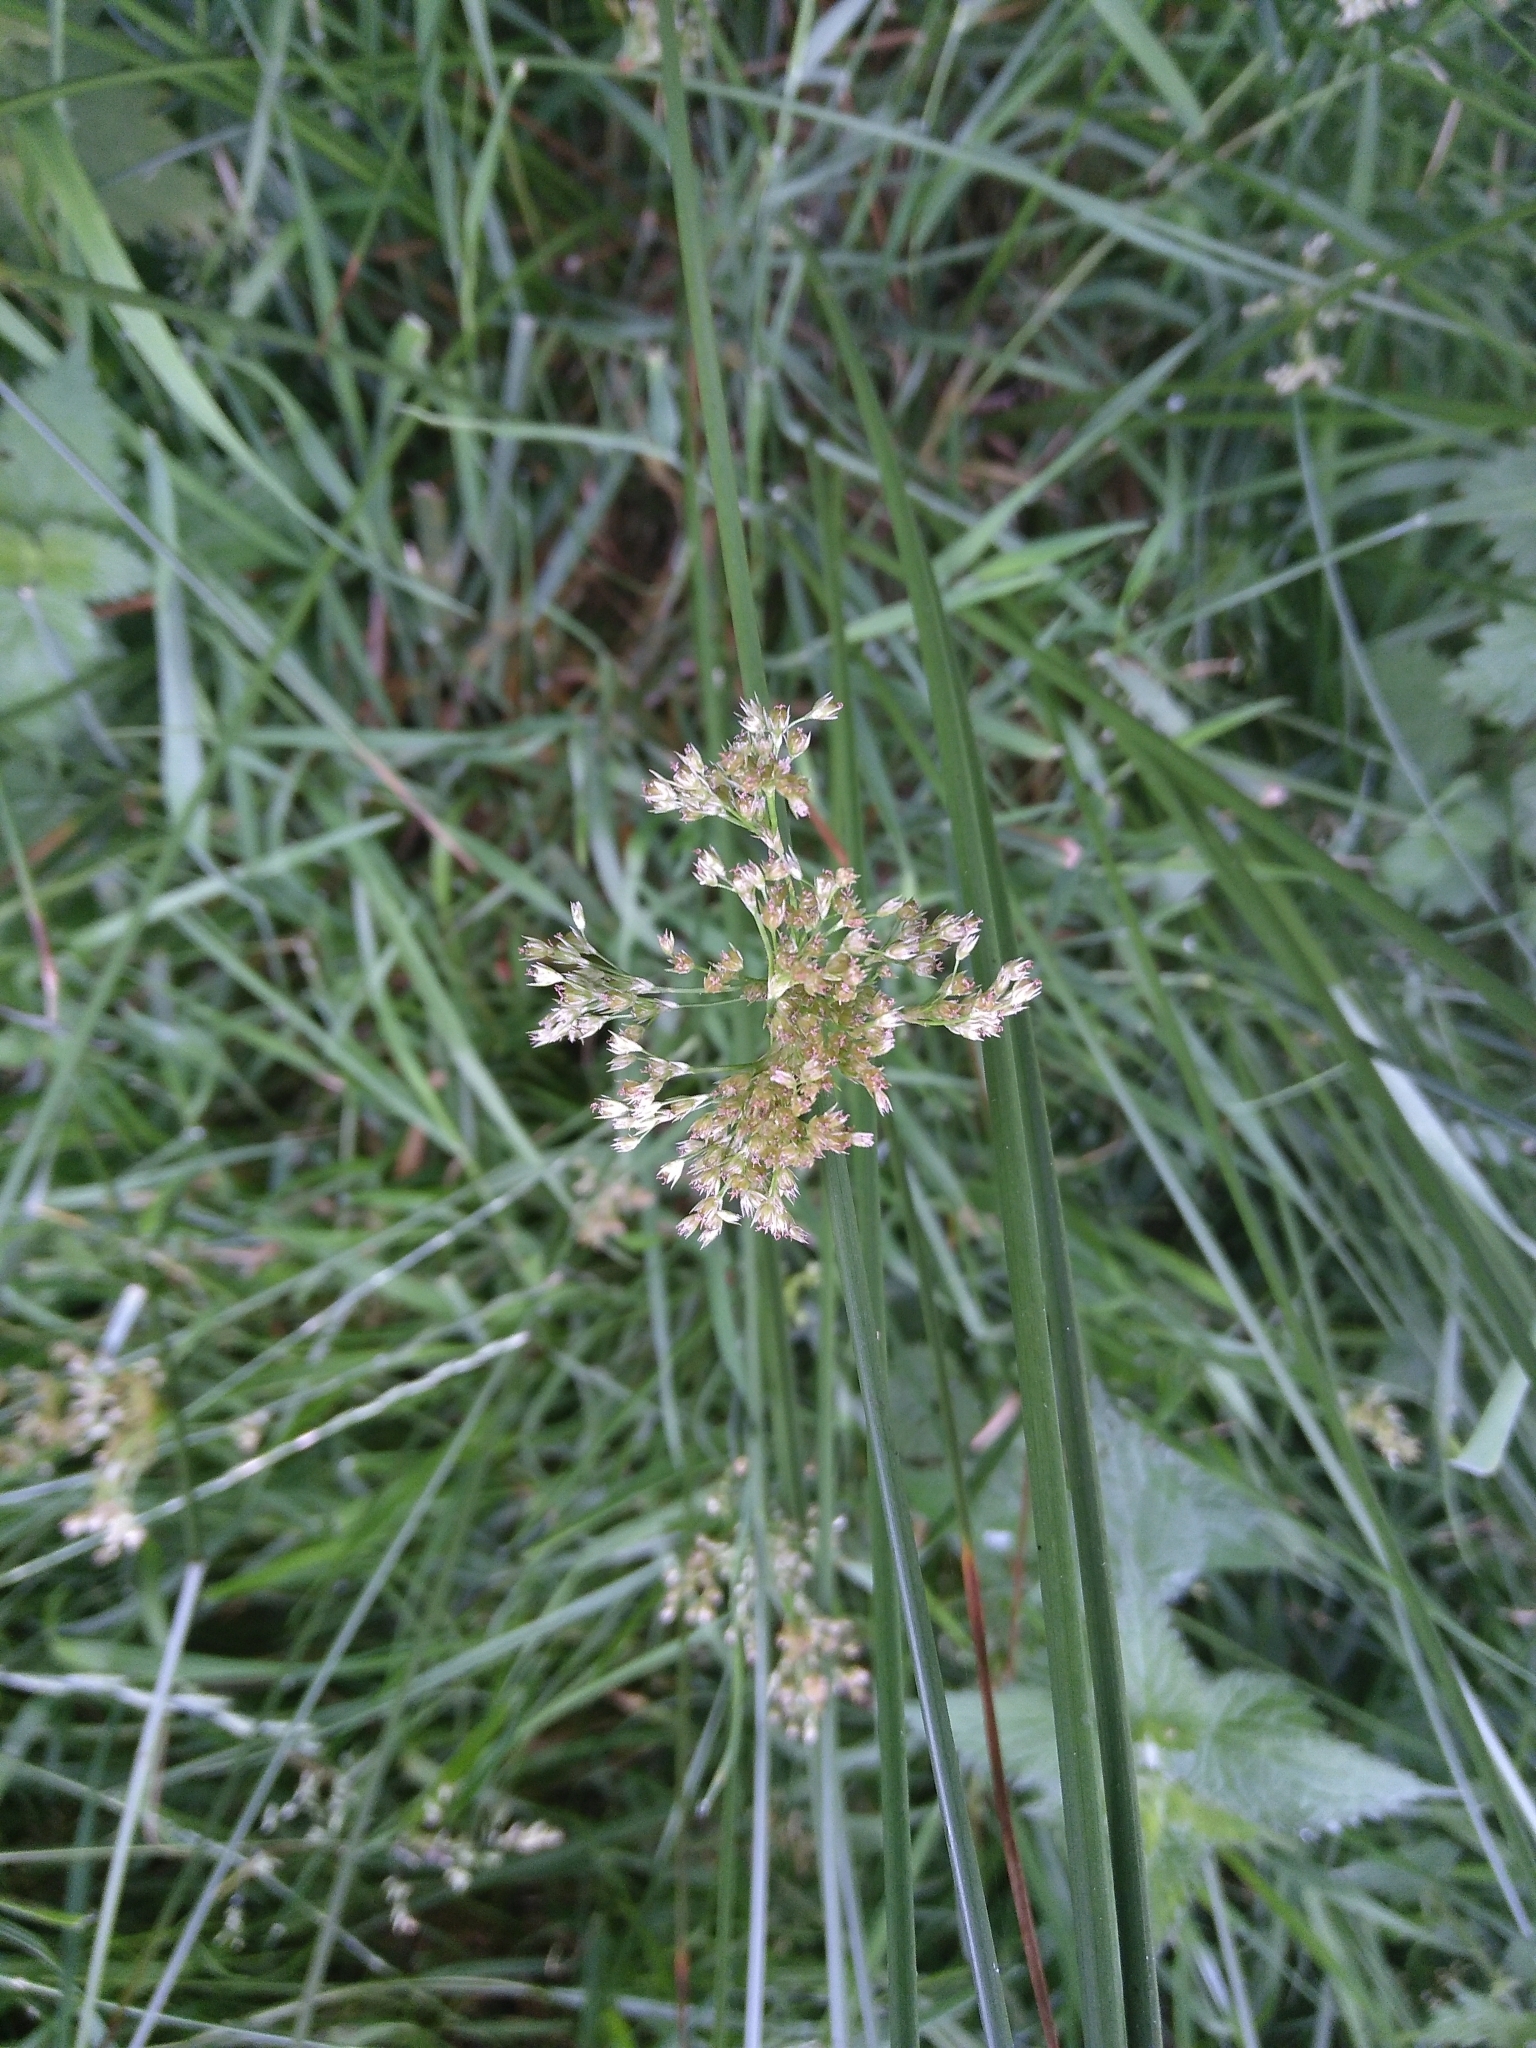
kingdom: Plantae
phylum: Tracheophyta
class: Liliopsida
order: Poales
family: Juncaceae
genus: Juncus
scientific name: Juncus effusus
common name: Soft rush
